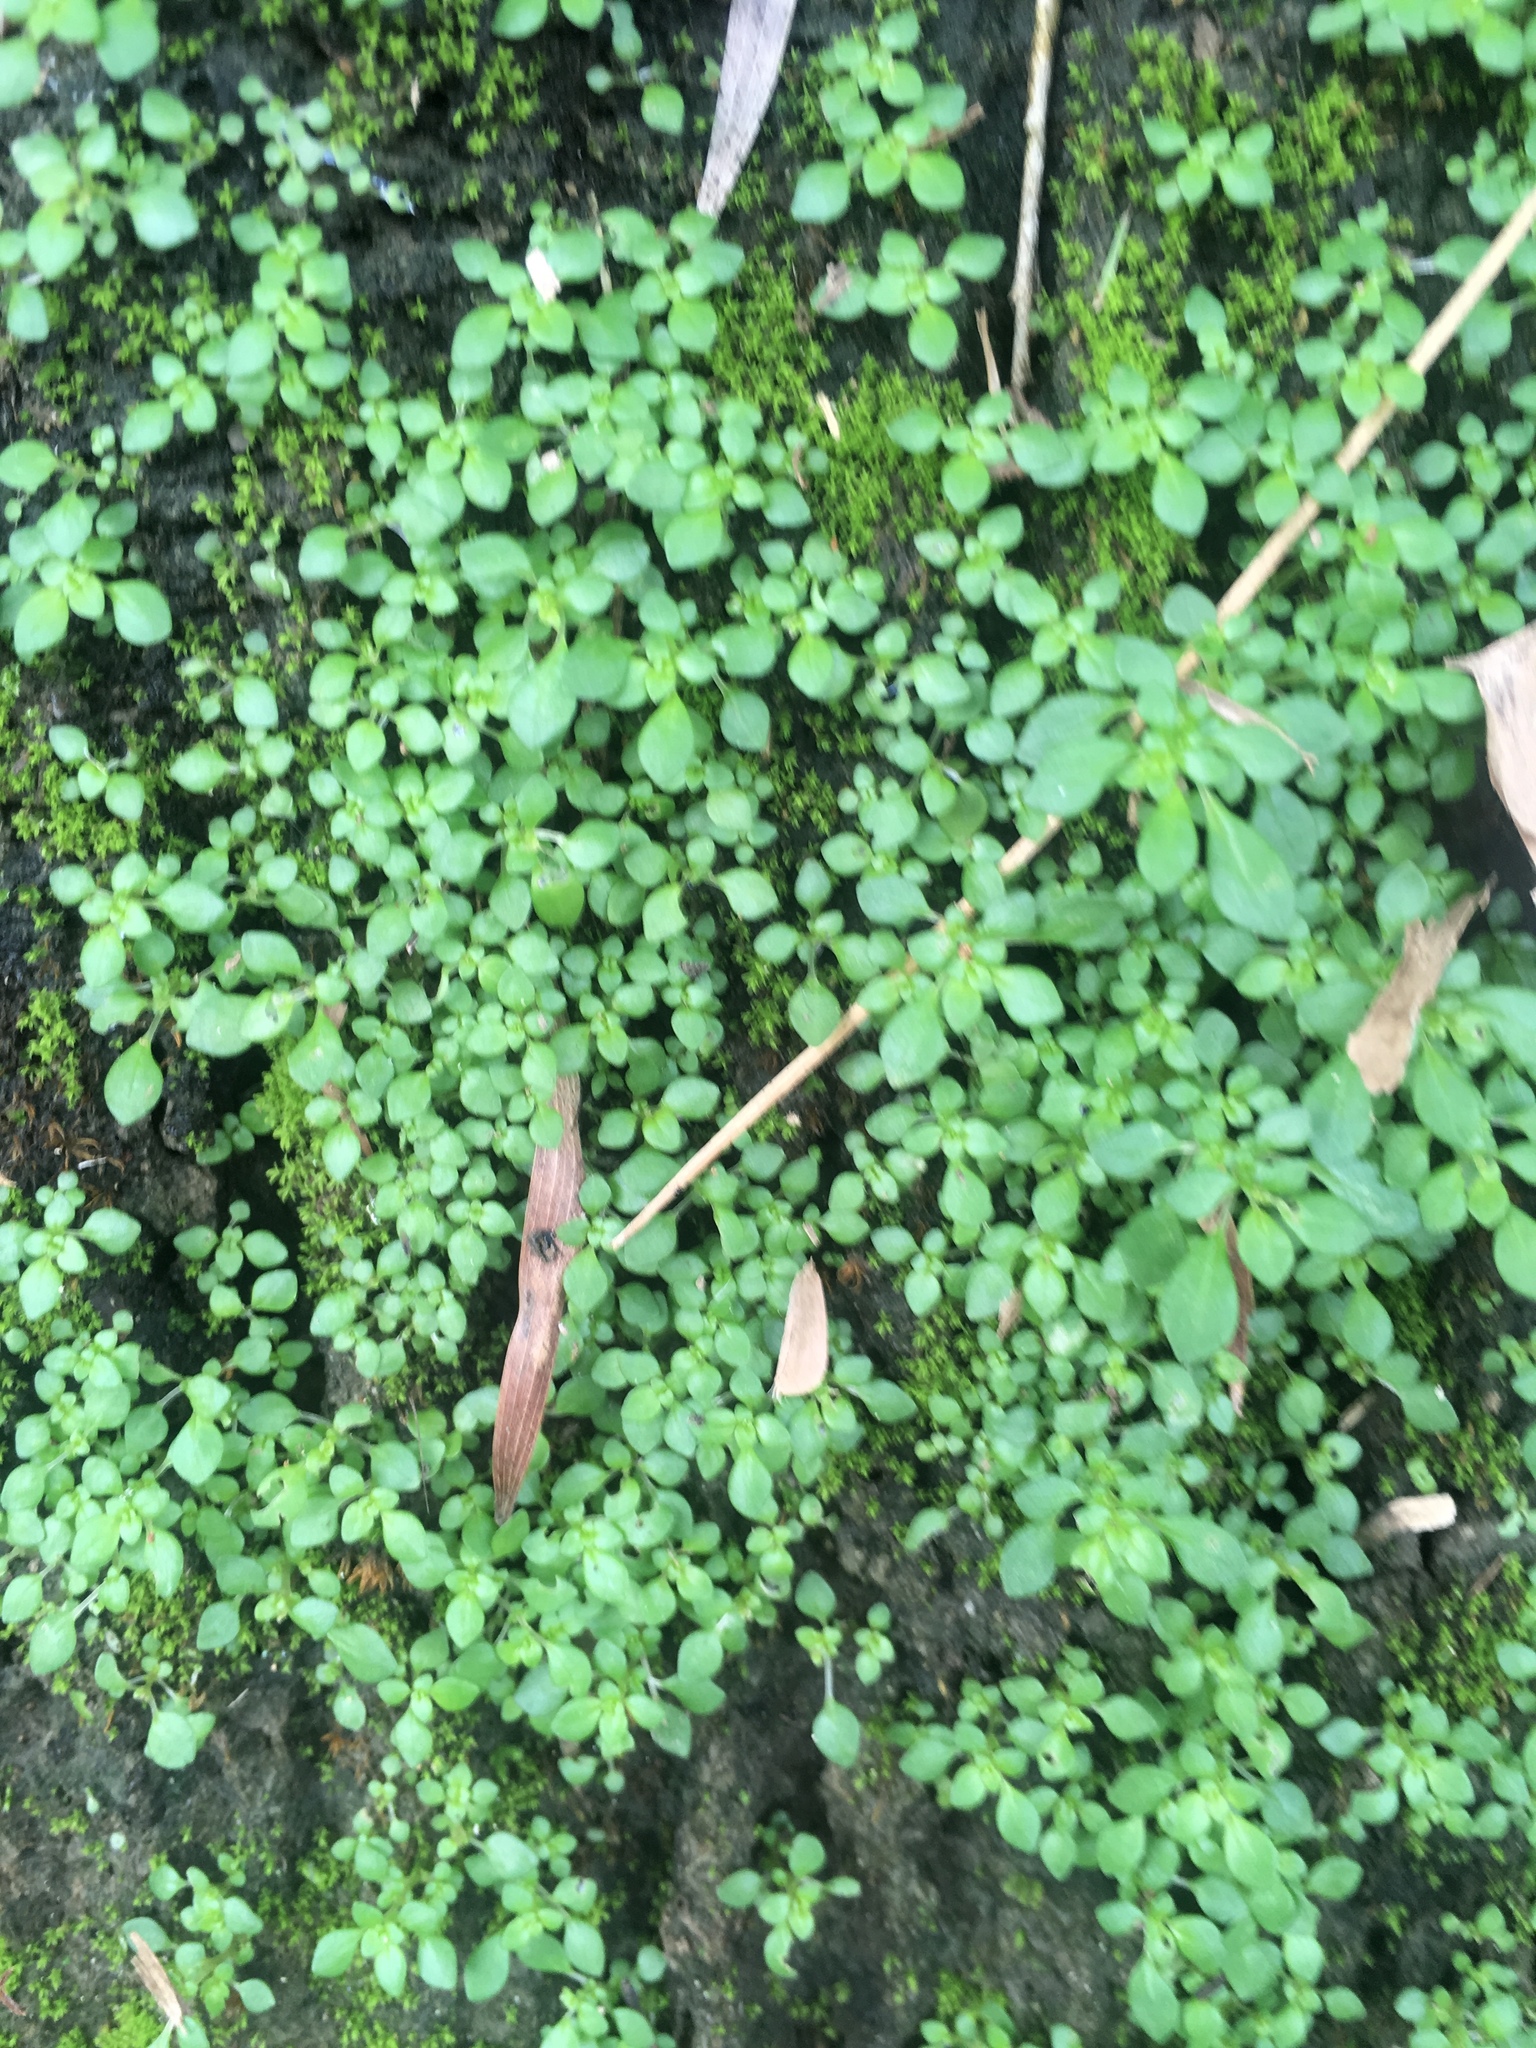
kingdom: Plantae
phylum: Tracheophyta
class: Magnoliopsida
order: Rosales
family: Urticaceae
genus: Pilea
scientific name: Pilea microphylla
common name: Artillery-plant
